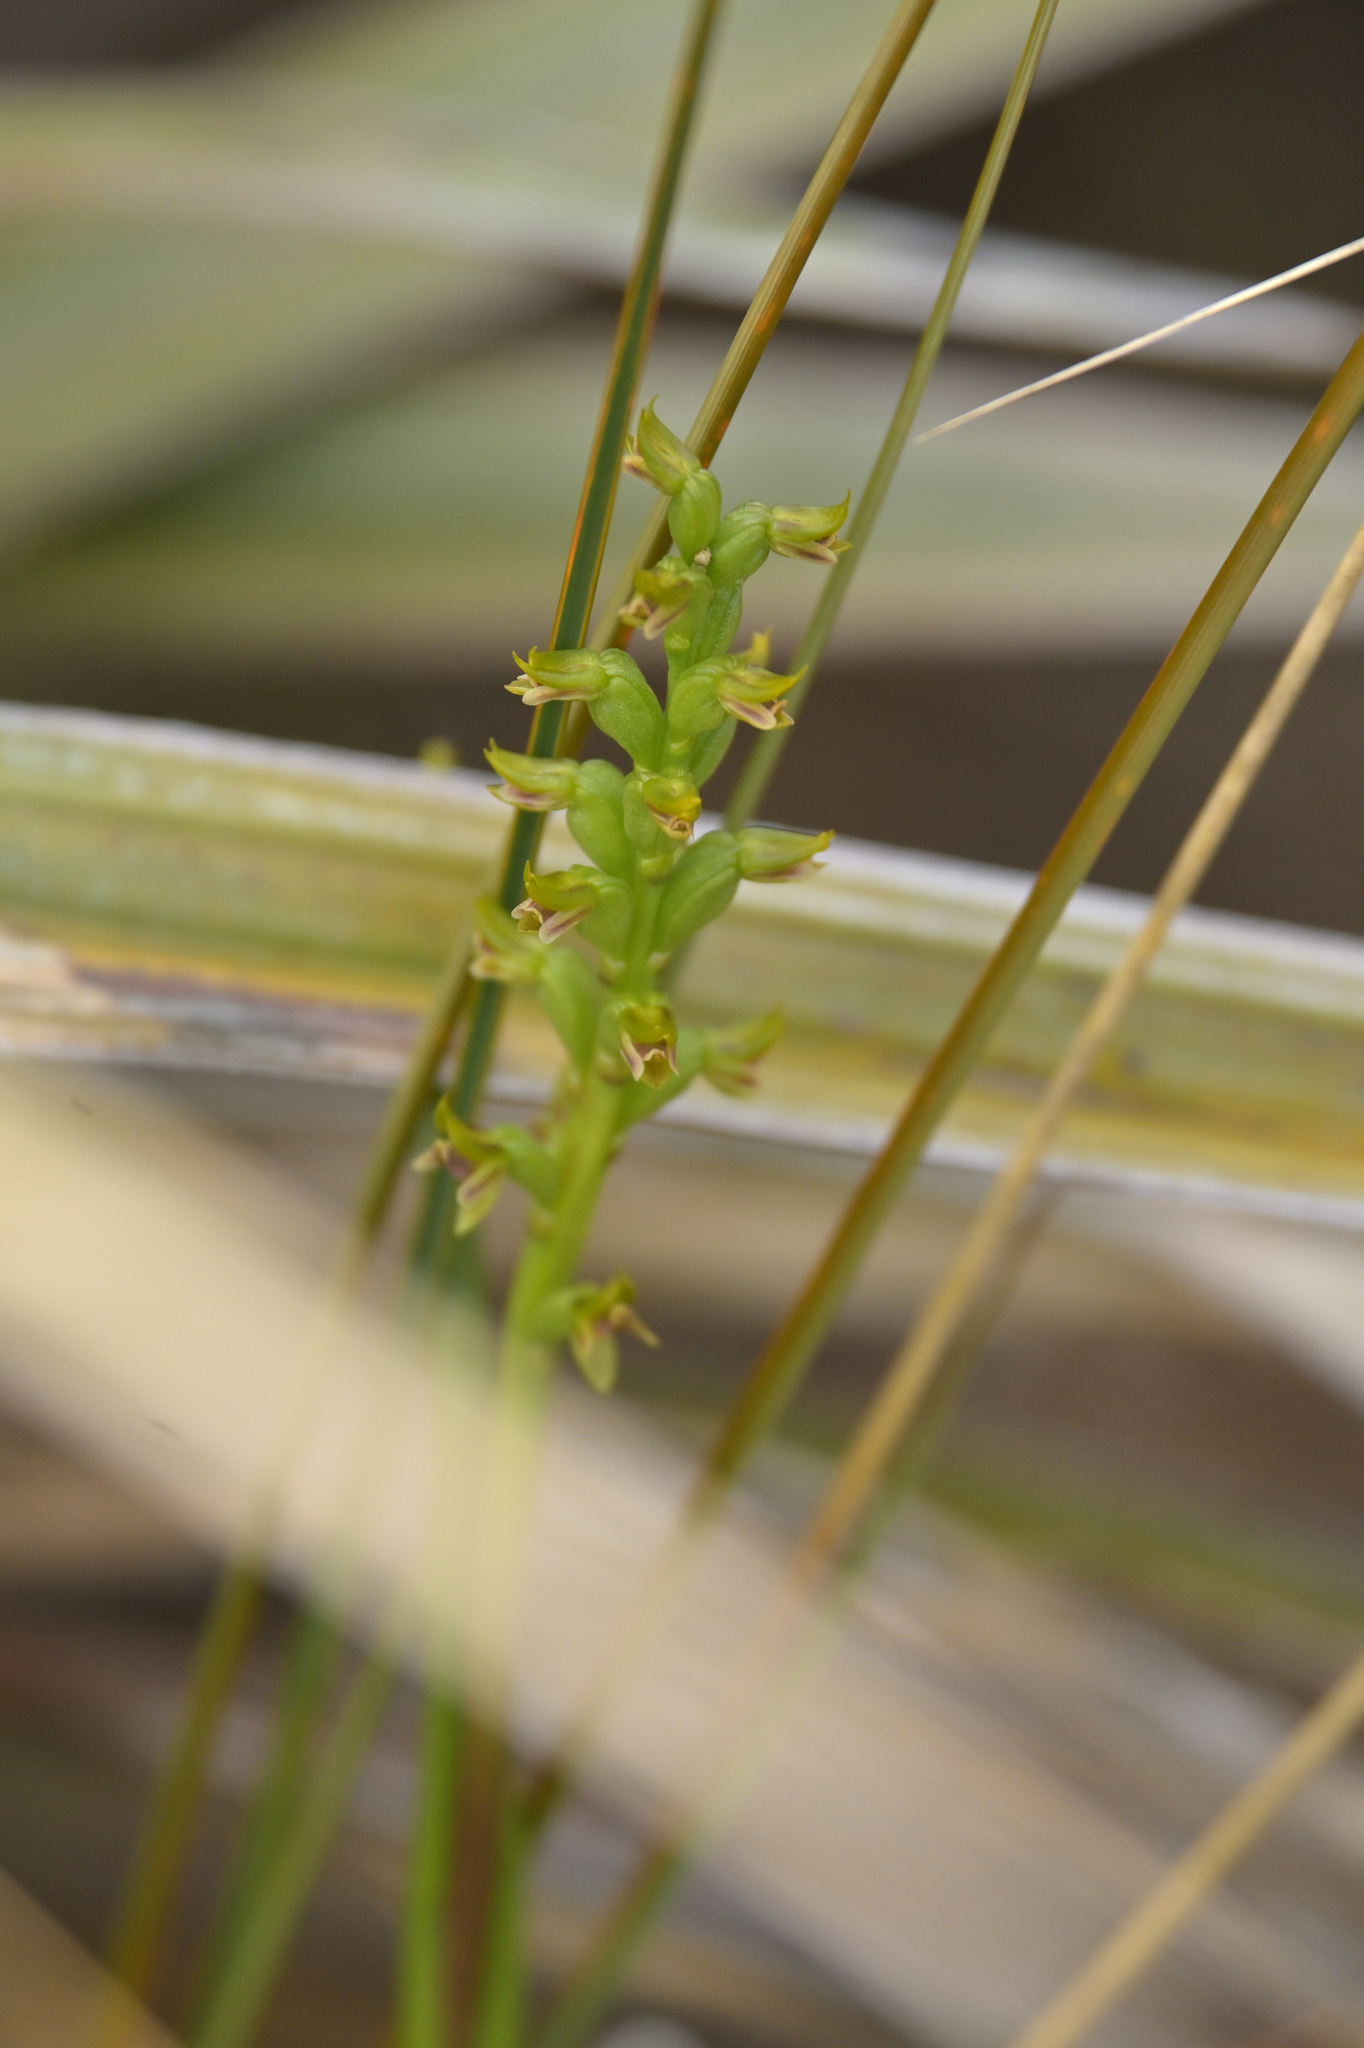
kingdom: Plantae
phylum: Tracheophyta
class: Liliopsida
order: Asparagales
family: Orchidaceae
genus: Prasophyllum
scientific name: Prasophyllum colensoi
